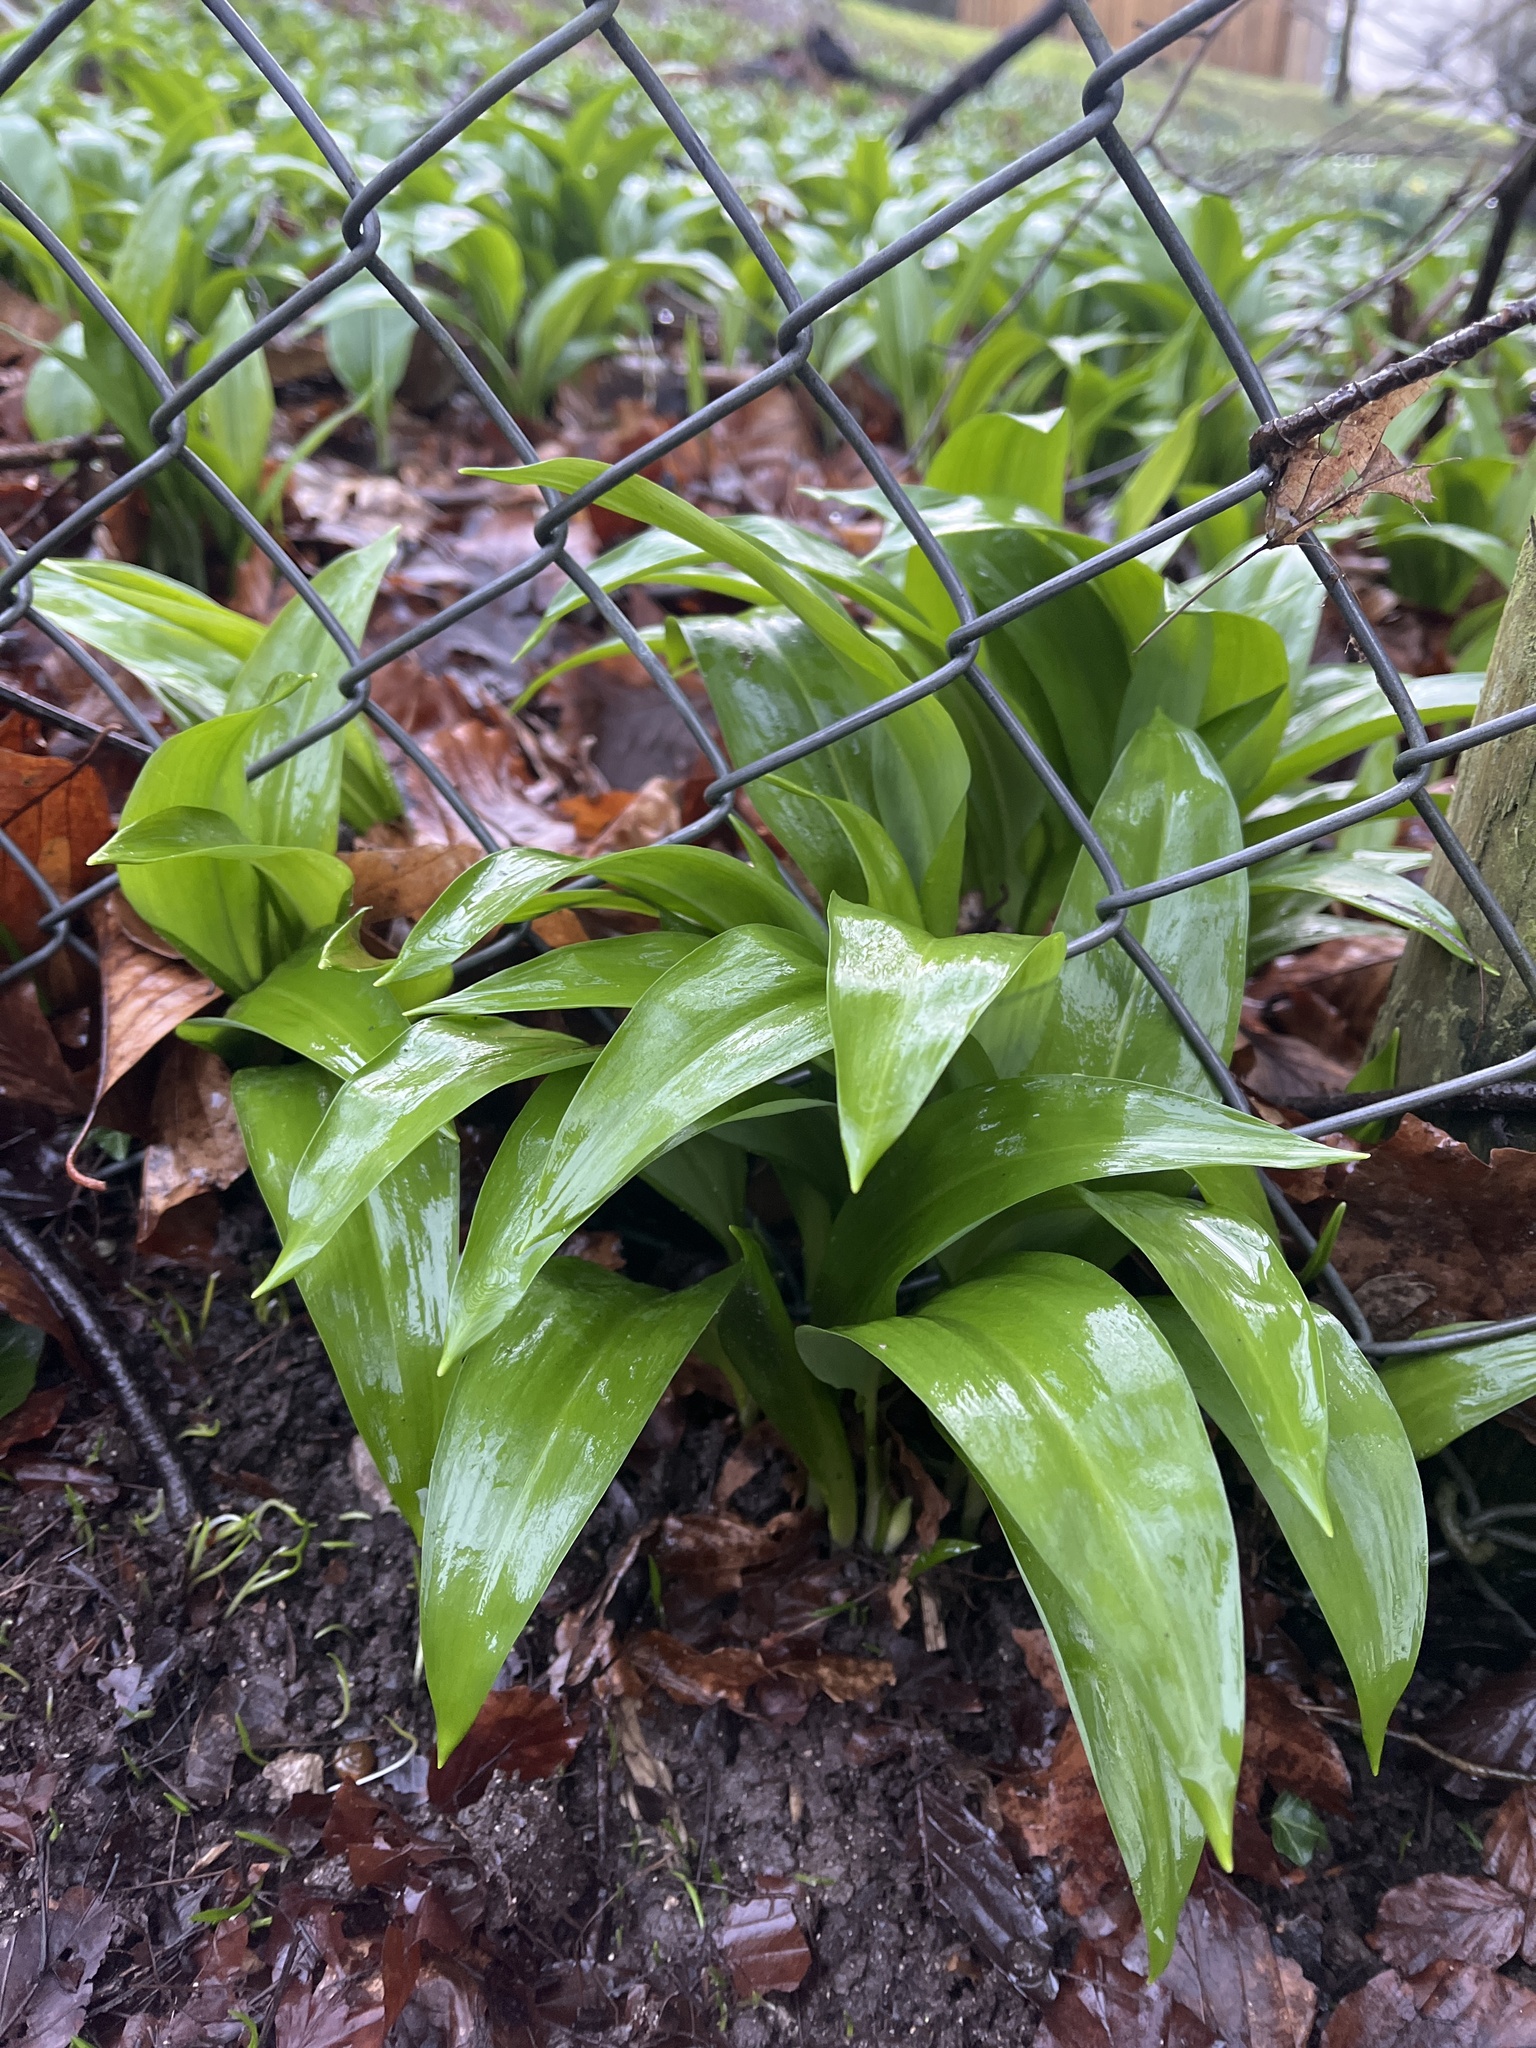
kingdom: Plantae
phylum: Tracheophyta
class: Liliopsida
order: Asparagales
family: Amaryllidaceae
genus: Allium
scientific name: Allium ursinum
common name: Ramsons
